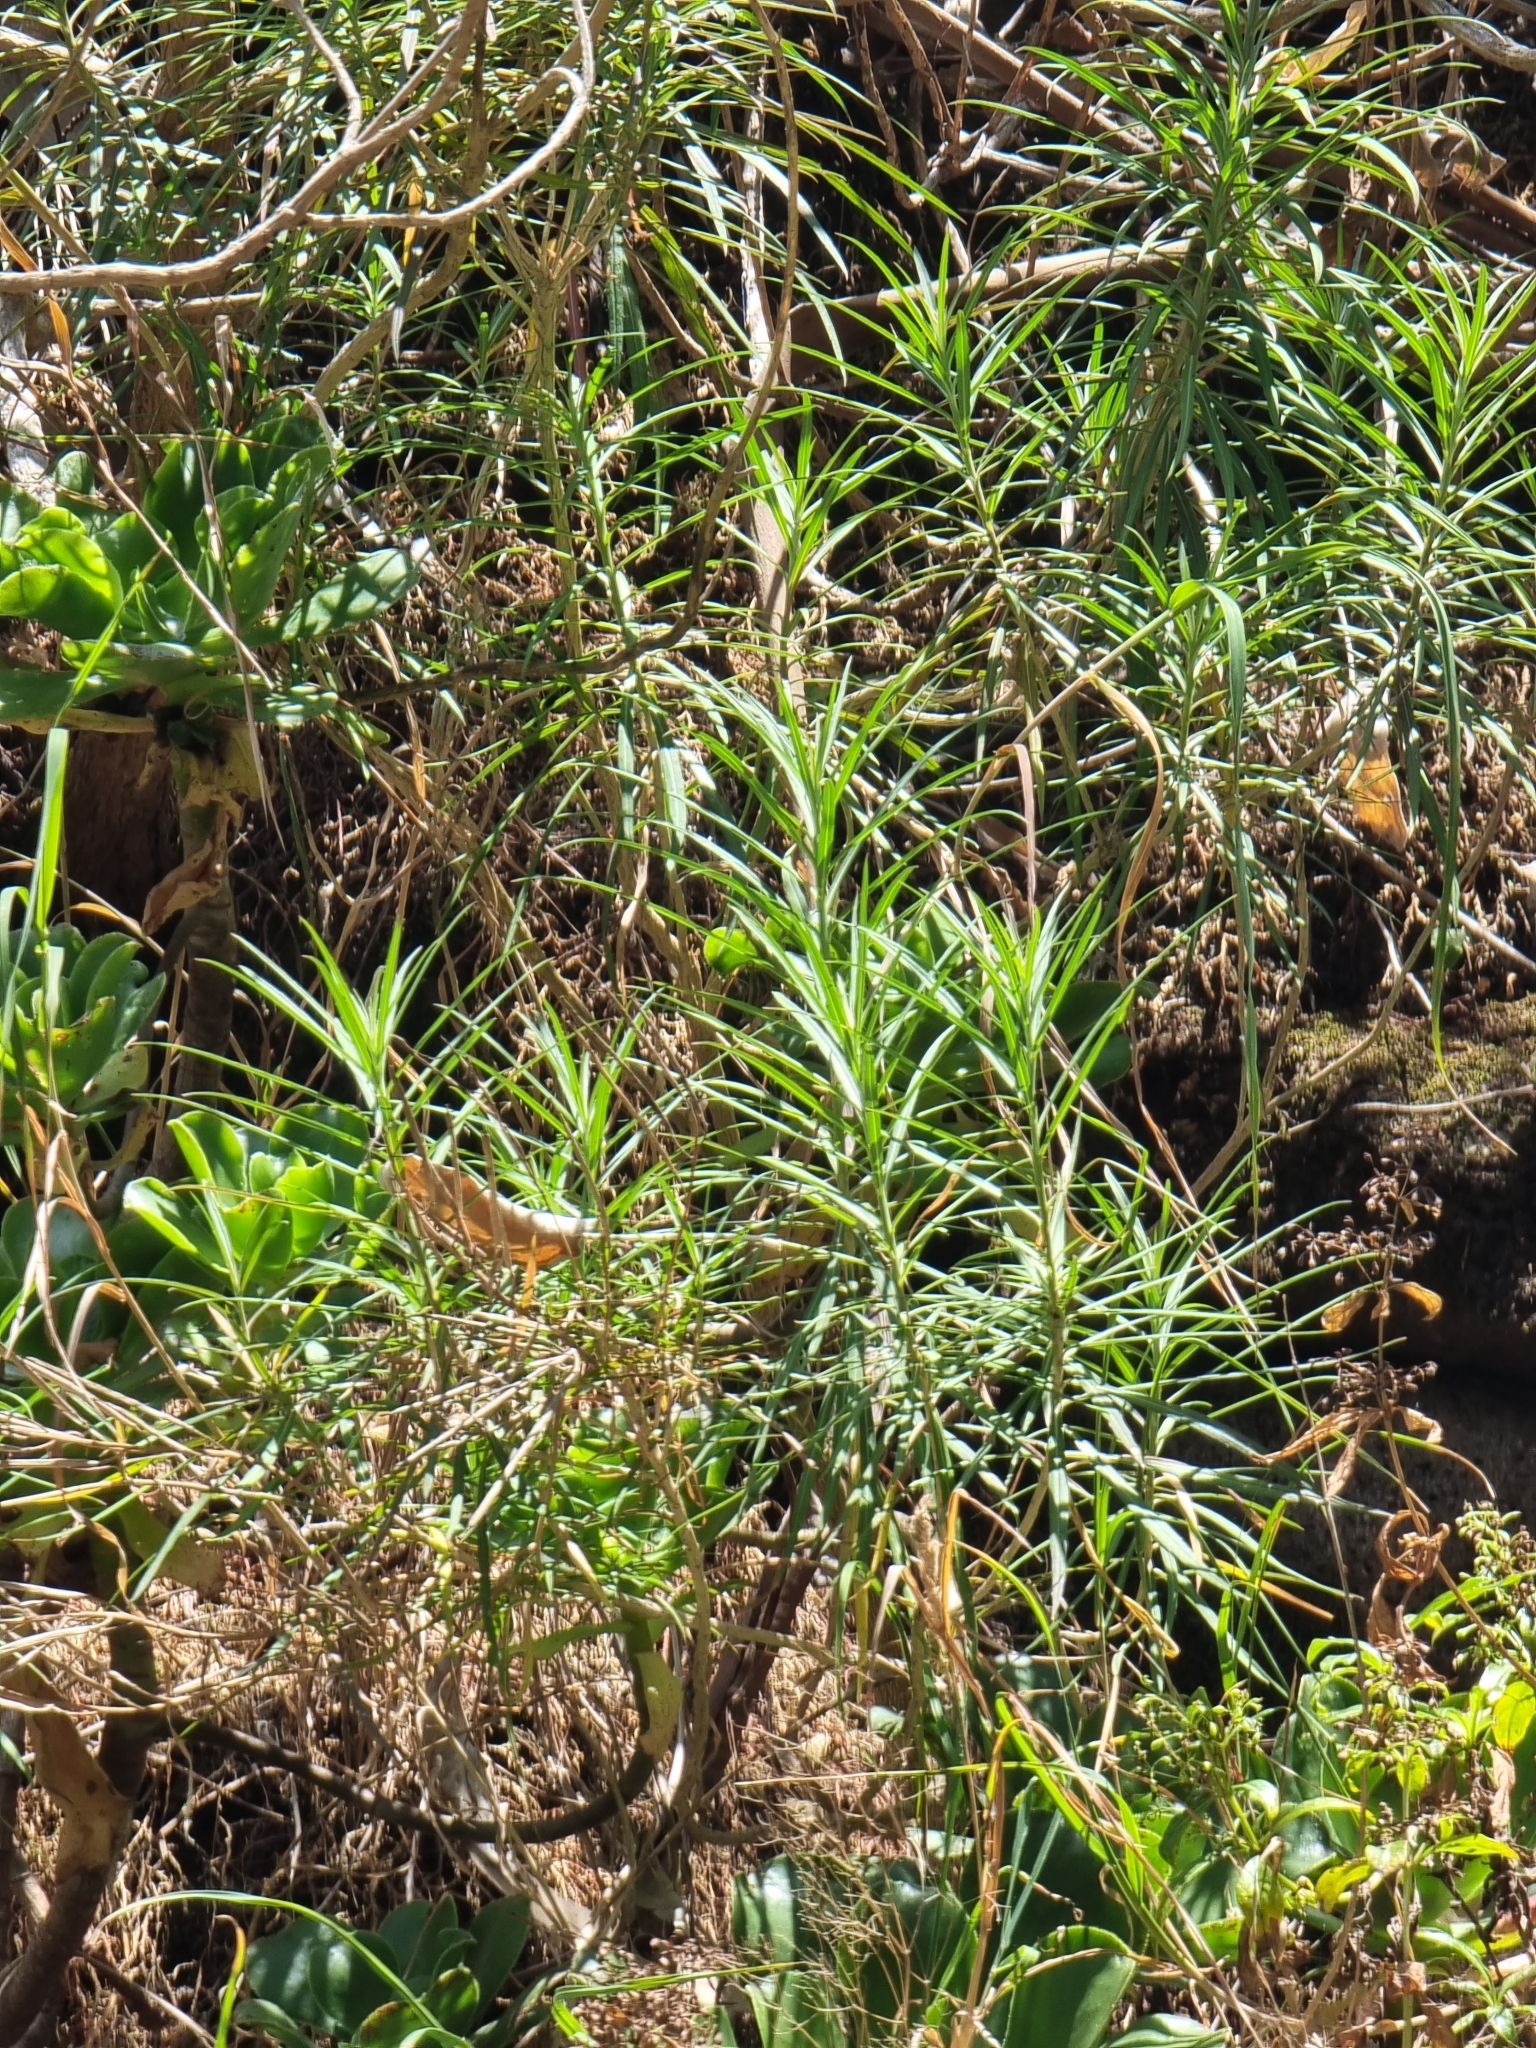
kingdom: Plantae
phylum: Tracheophyta
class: Magnoliopsida
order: Brassicales
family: Brassicaceae
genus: Erysimum
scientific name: Erysimum bicolor
